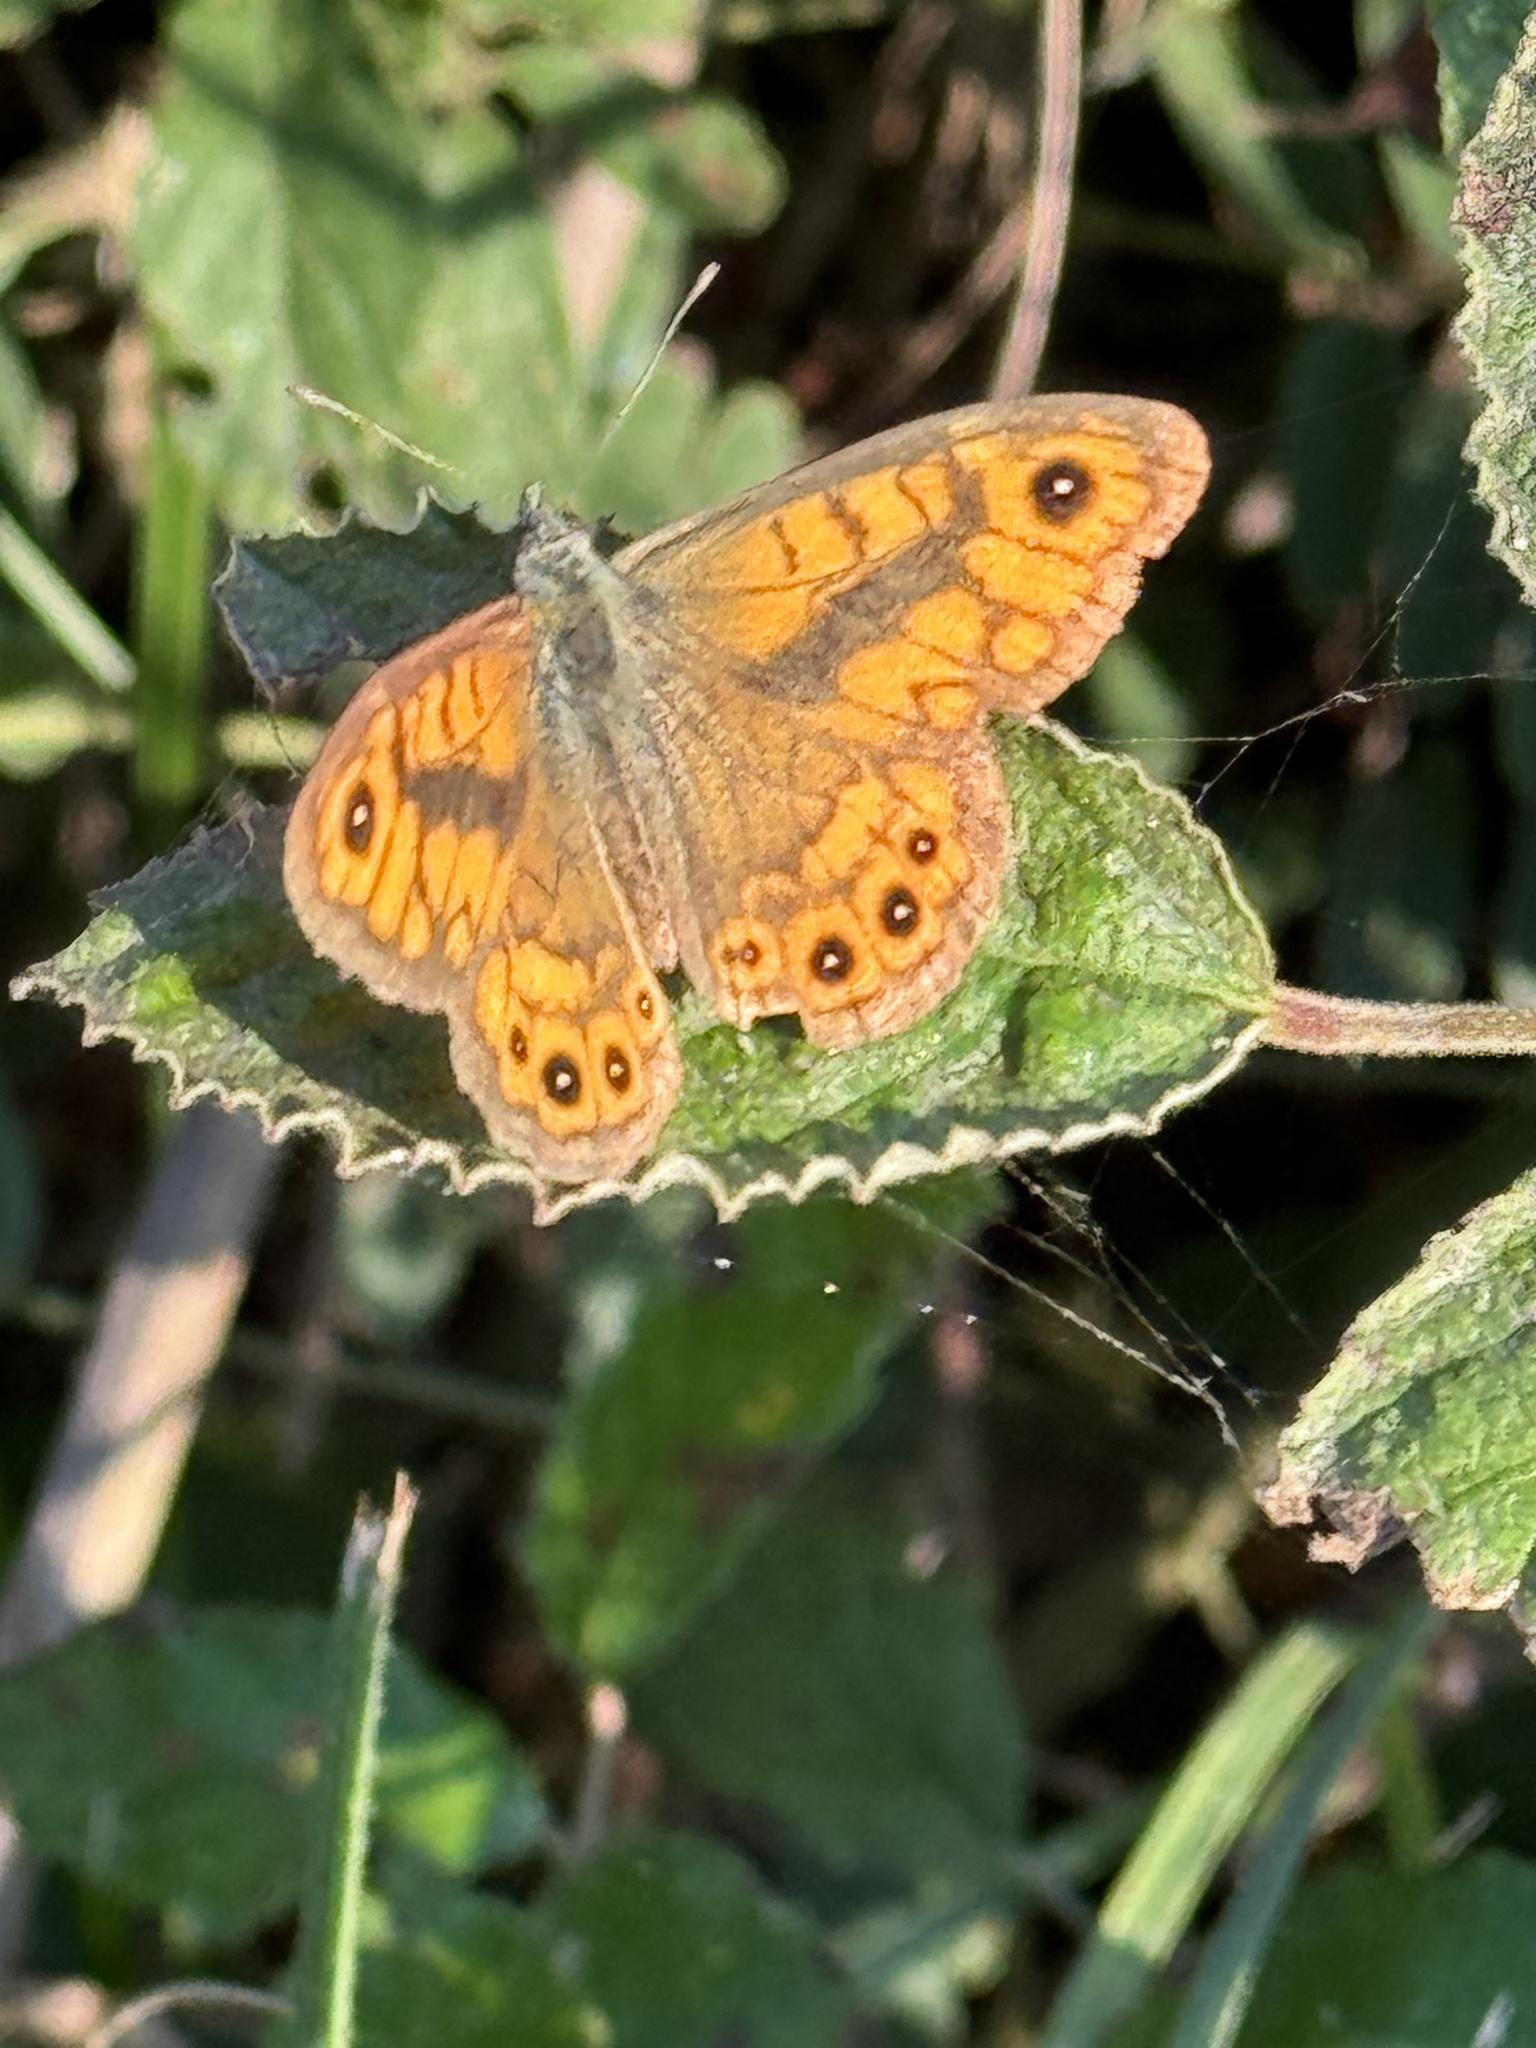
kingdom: Animalia
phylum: Arthropoda
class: Insecta
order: Lepidoptera
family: Nymphalidae
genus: Pararge
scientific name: Pararge Lasiommata megera
